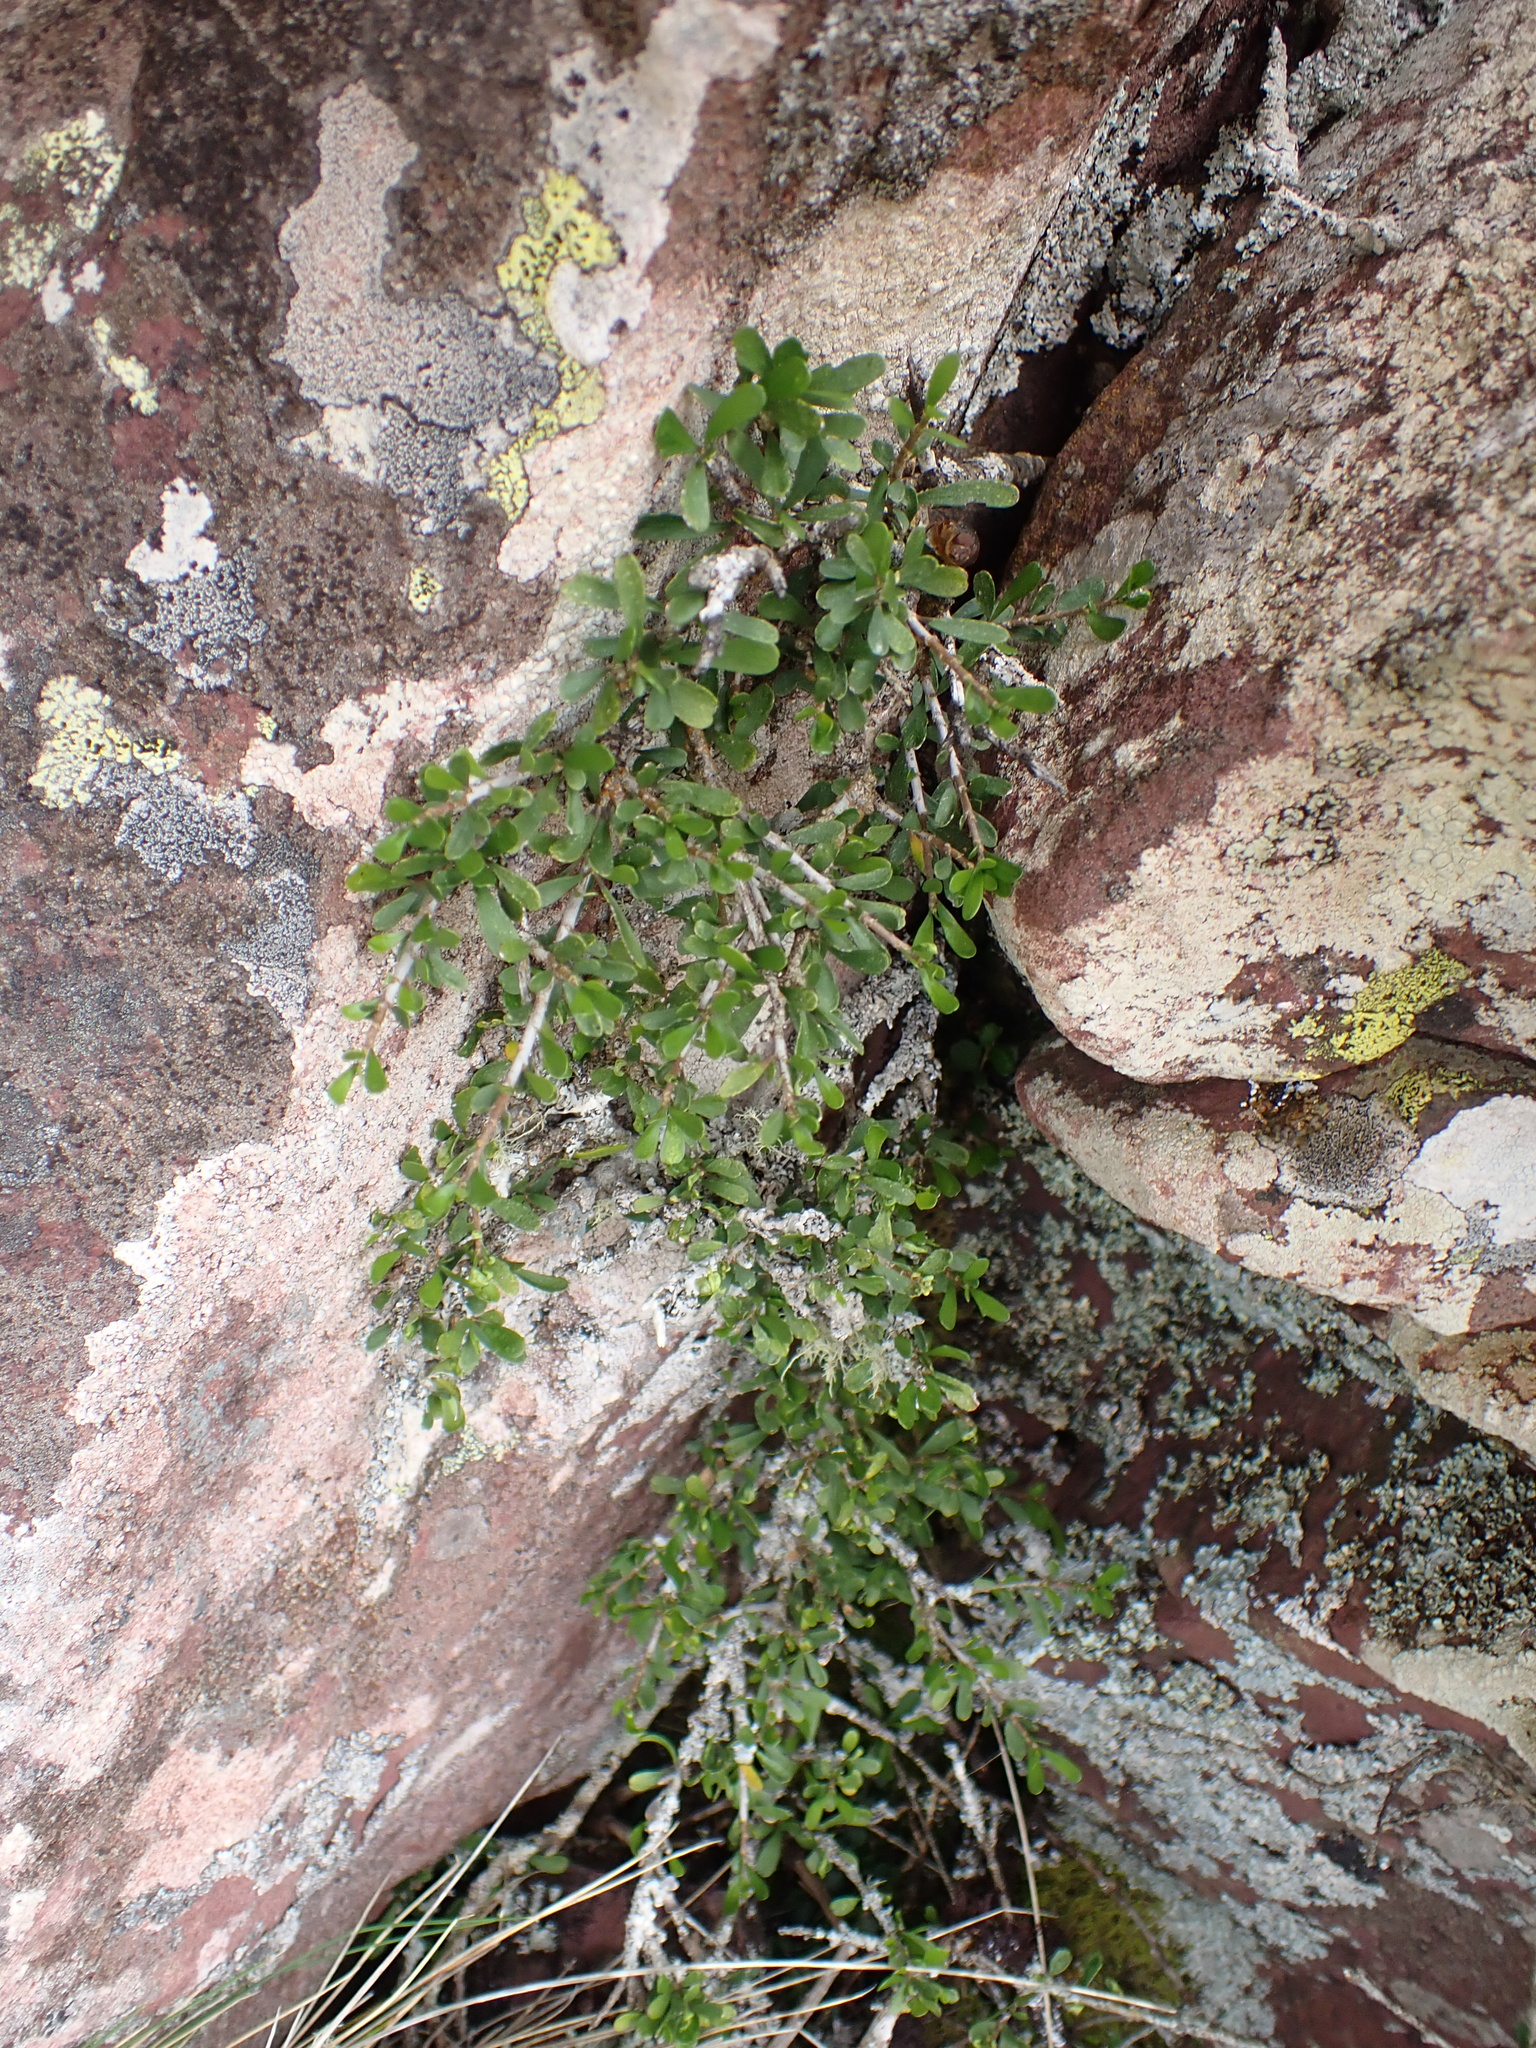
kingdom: Plantae
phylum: Tracheophyta
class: Magnoliopsida
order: Malpighiales
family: Violaceae
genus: Melicytus
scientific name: Melicytus angustifolius
